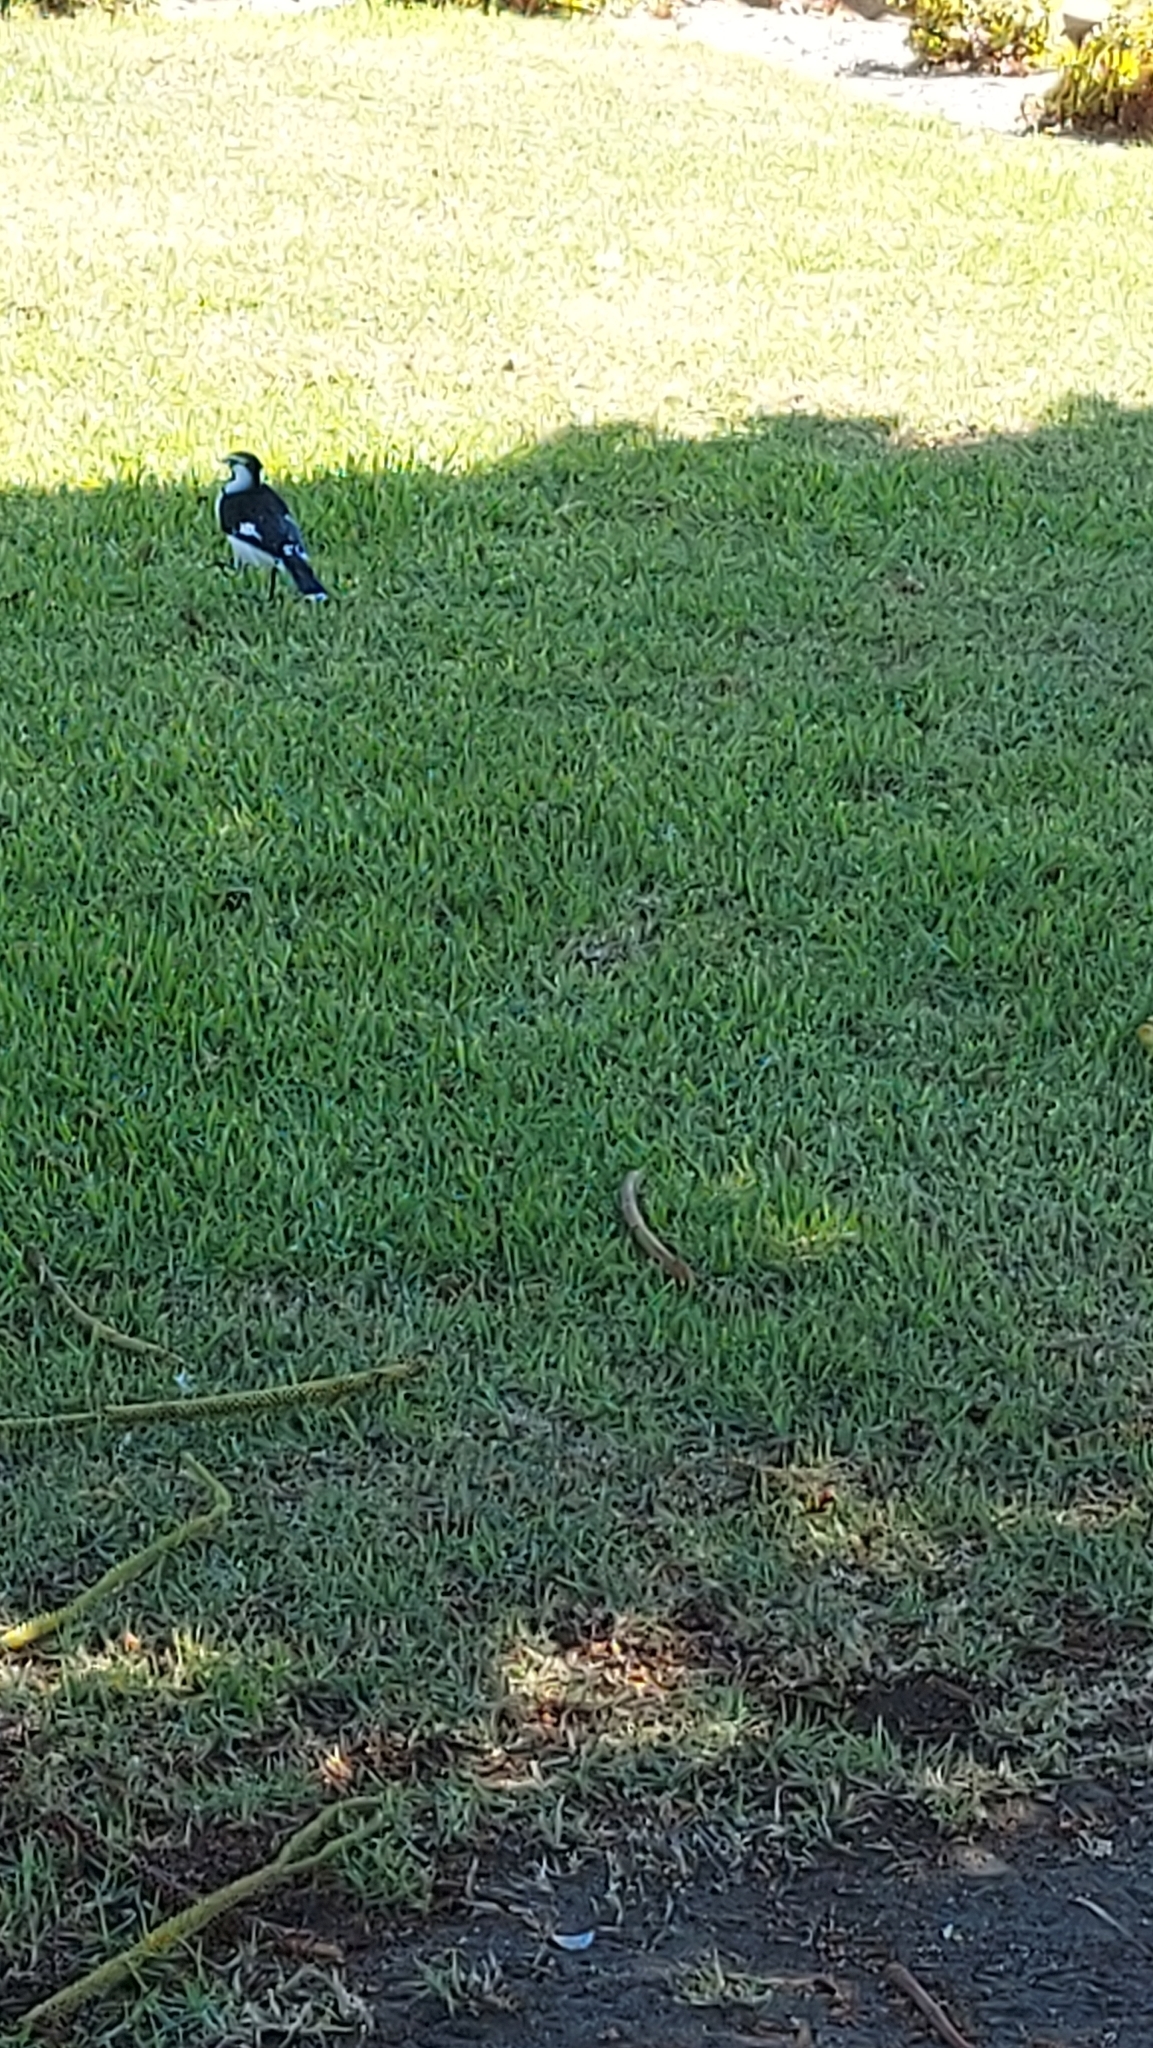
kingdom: Animalia
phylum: Chordata
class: Aves
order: Passeriformes
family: Monarchidae
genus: Grallina
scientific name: Grallina cyanoleuca
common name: Magpie-lark
